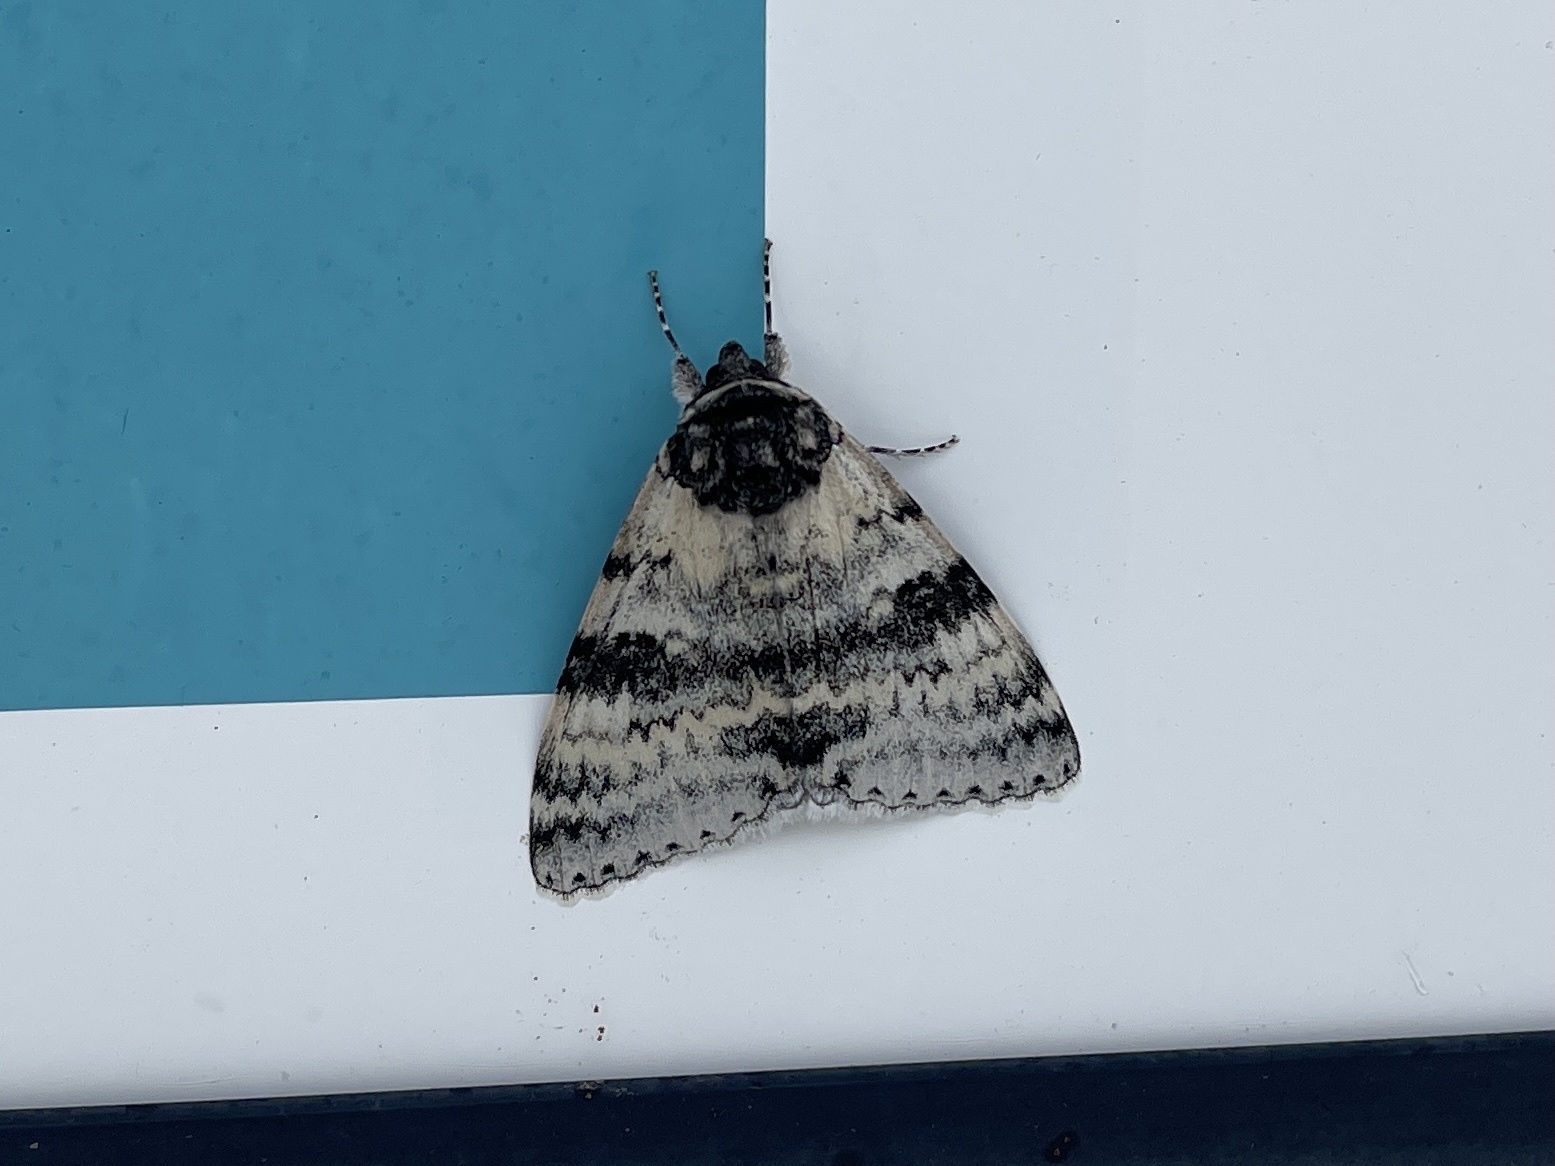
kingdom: Animalia
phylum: Arthropoda
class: Insecta
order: Lepidoptera
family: Erebidae
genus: Catocala
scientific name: Catocala relicta
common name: White underwing
